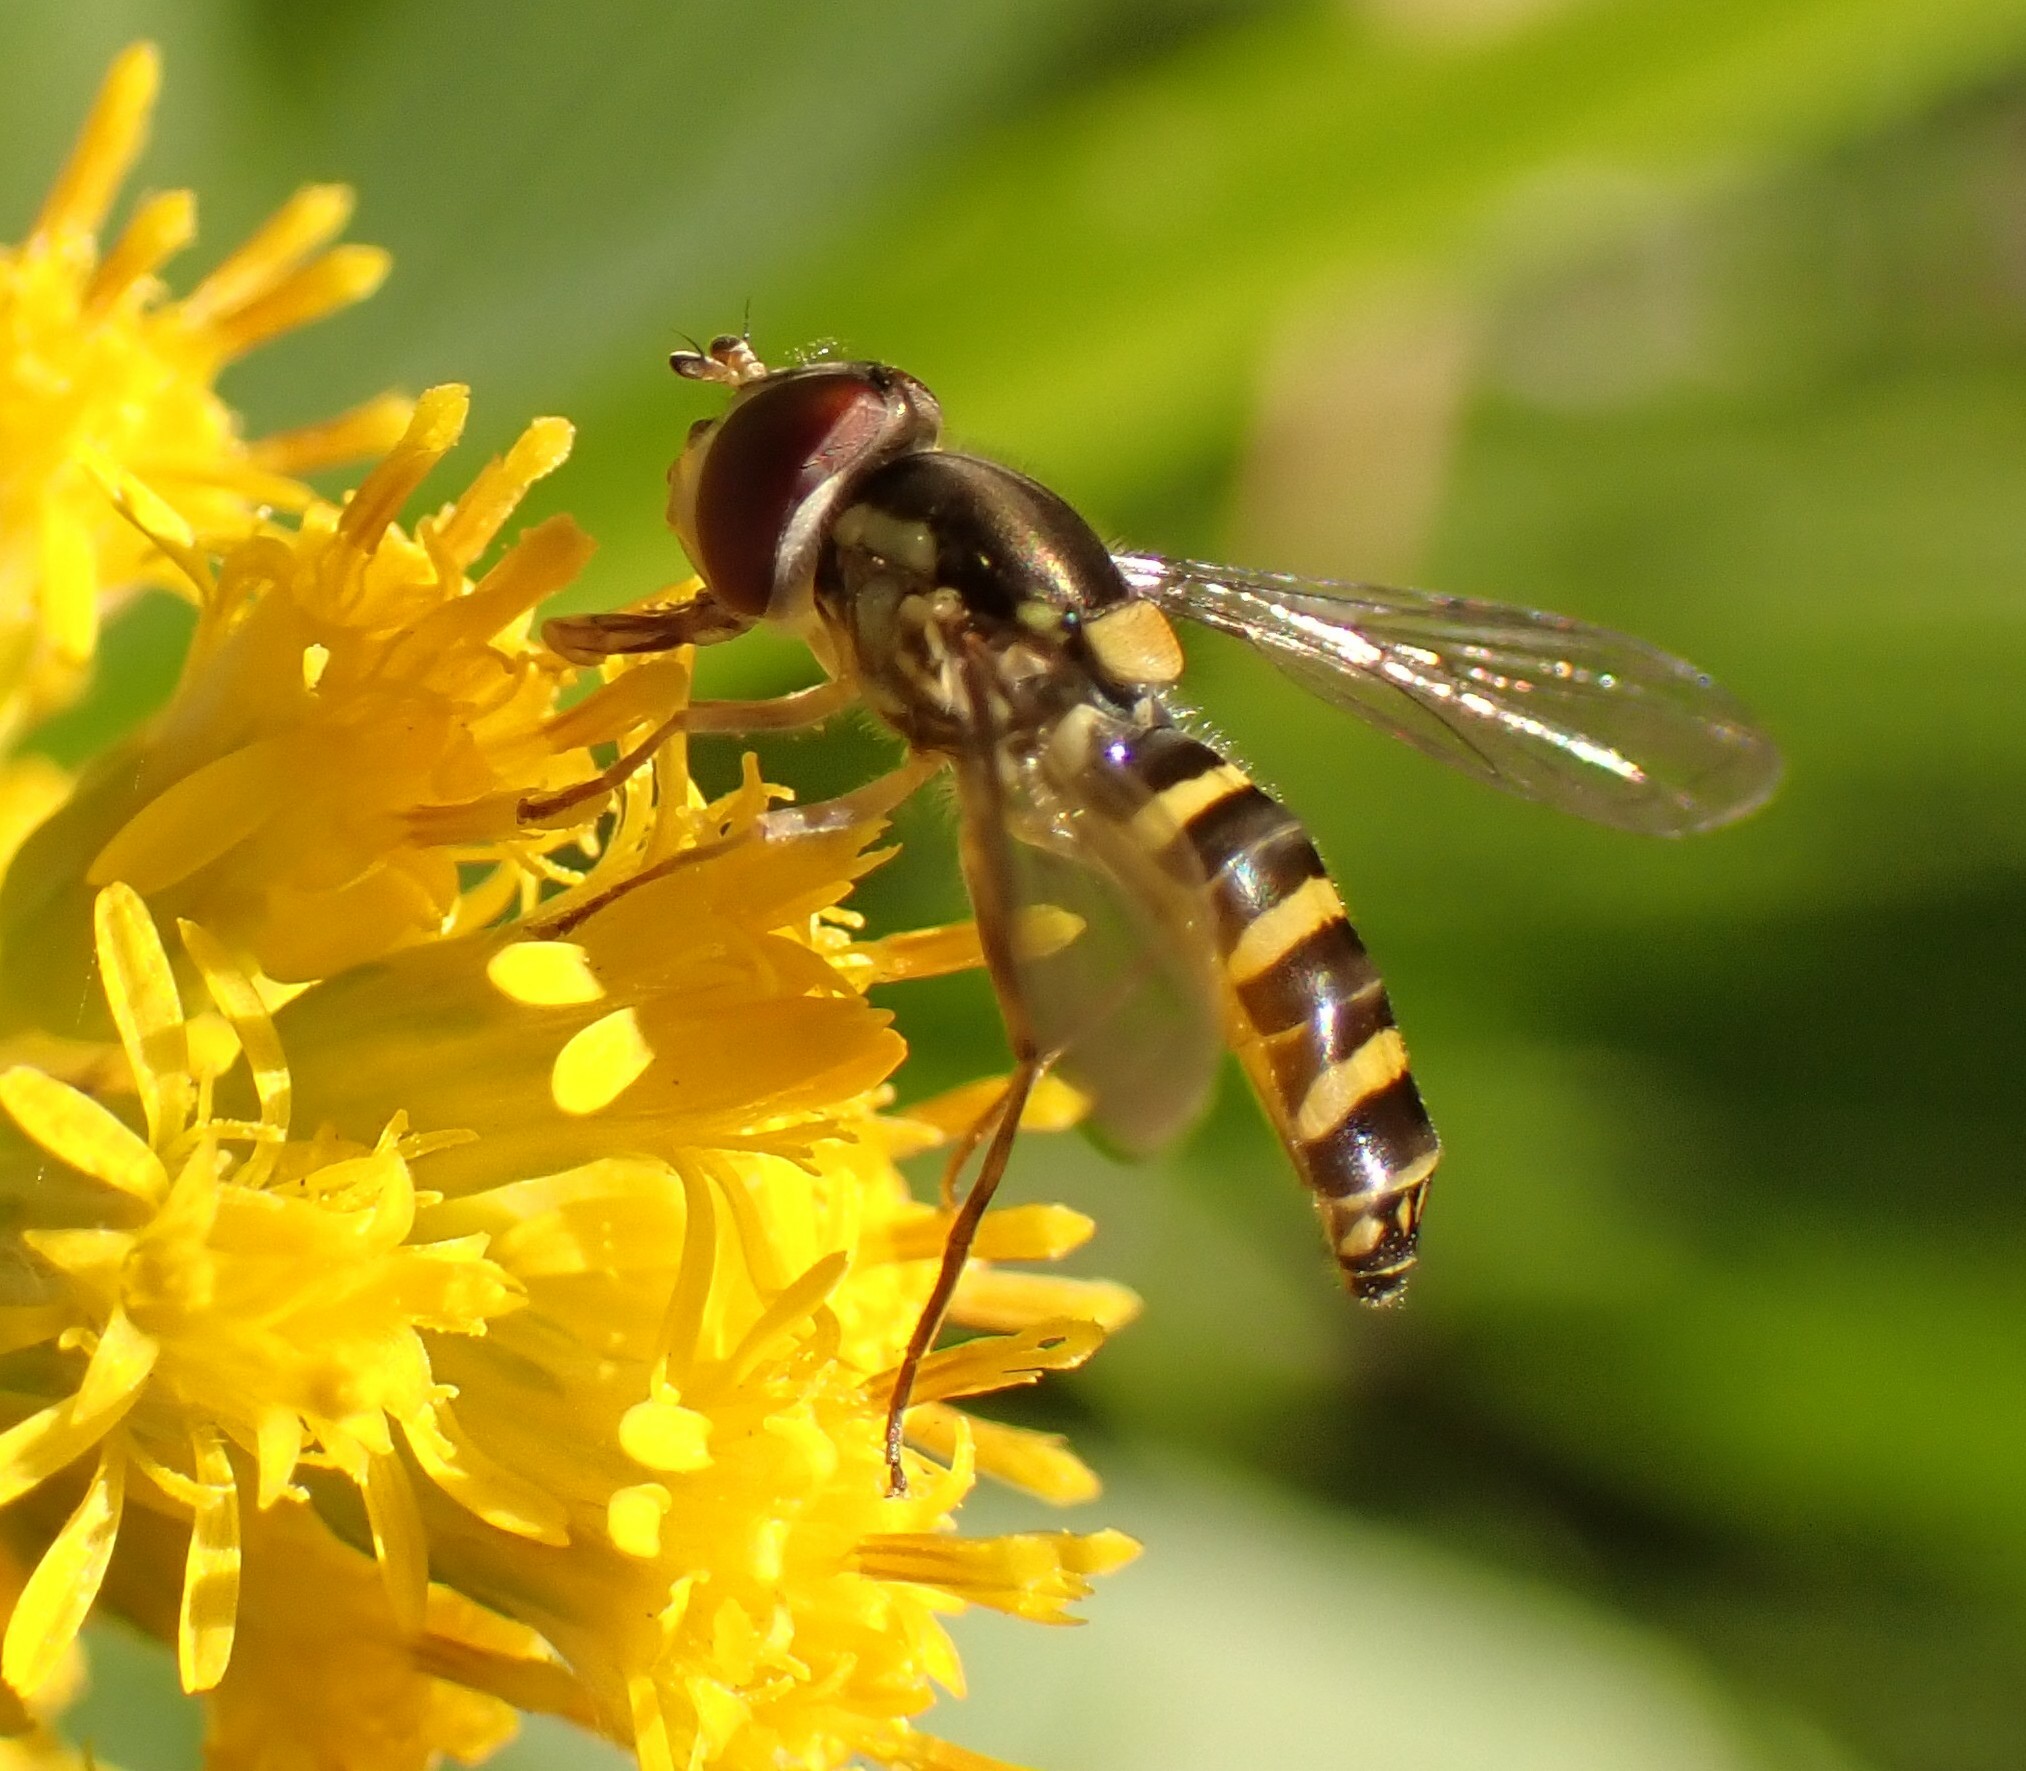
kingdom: Animalia
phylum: Arthropoda
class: Insecta
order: Diptera
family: Syrphidae
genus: Fazia
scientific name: Fazia micrura
